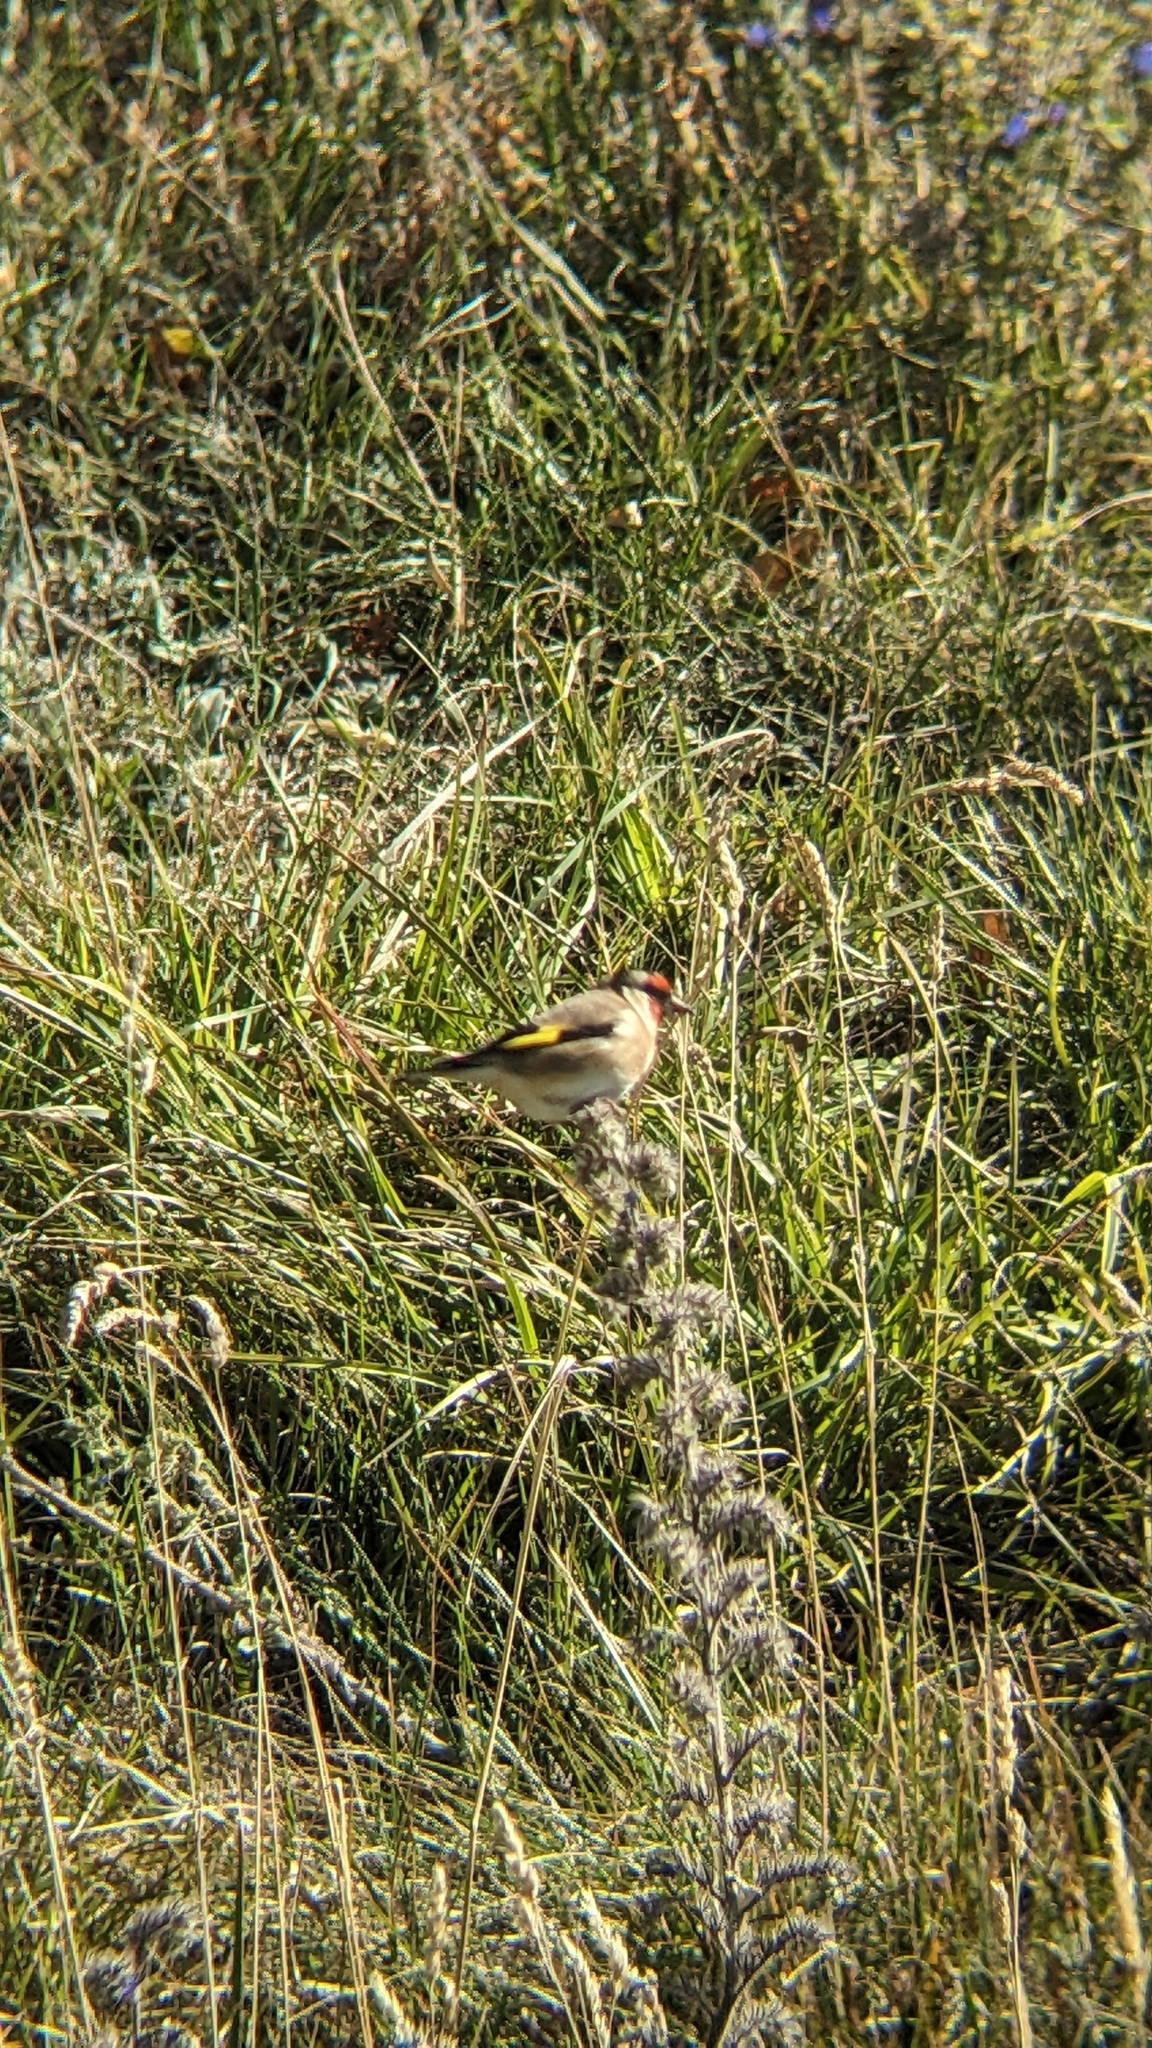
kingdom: Animalia
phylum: Chordata
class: Aves
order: Passeriformes
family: Fringillidae
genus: Carduelis
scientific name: Carduelis carduelis
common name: European goldfinch
